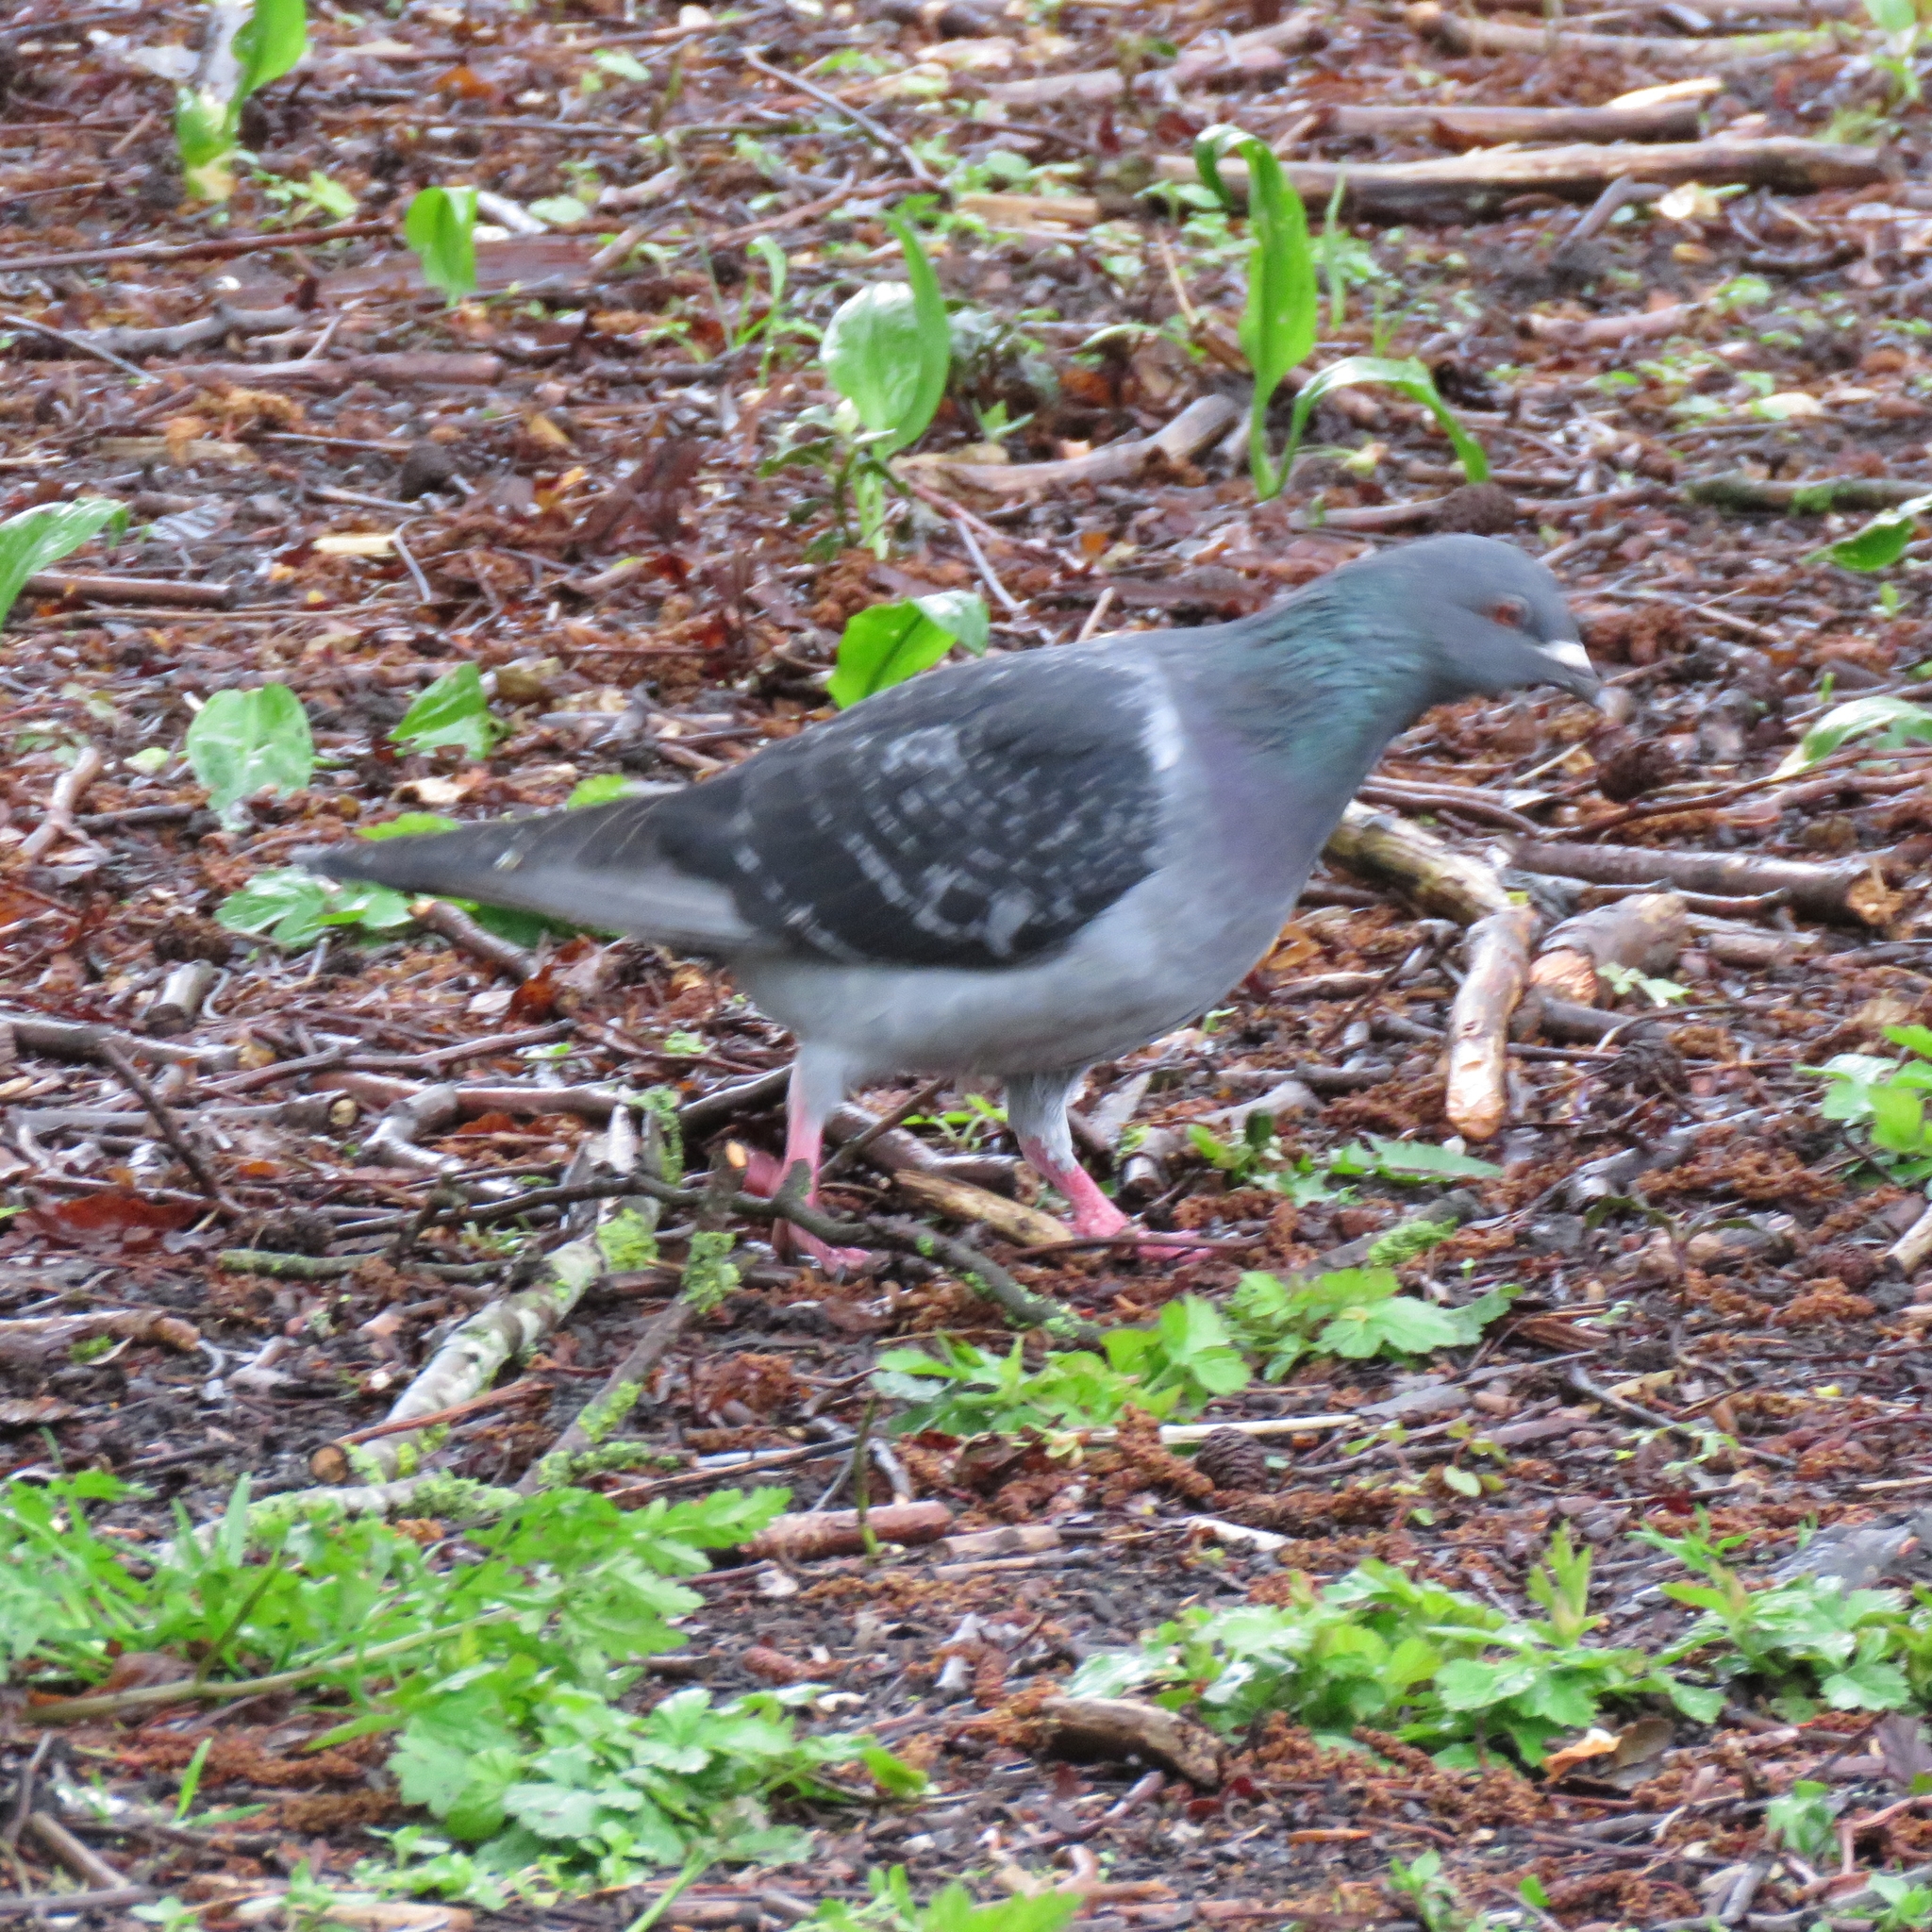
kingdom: Animalia
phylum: Chordata
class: Aves
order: Columbiformes
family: Columbidae
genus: Columba
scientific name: Columba livia
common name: Rock pigeon
